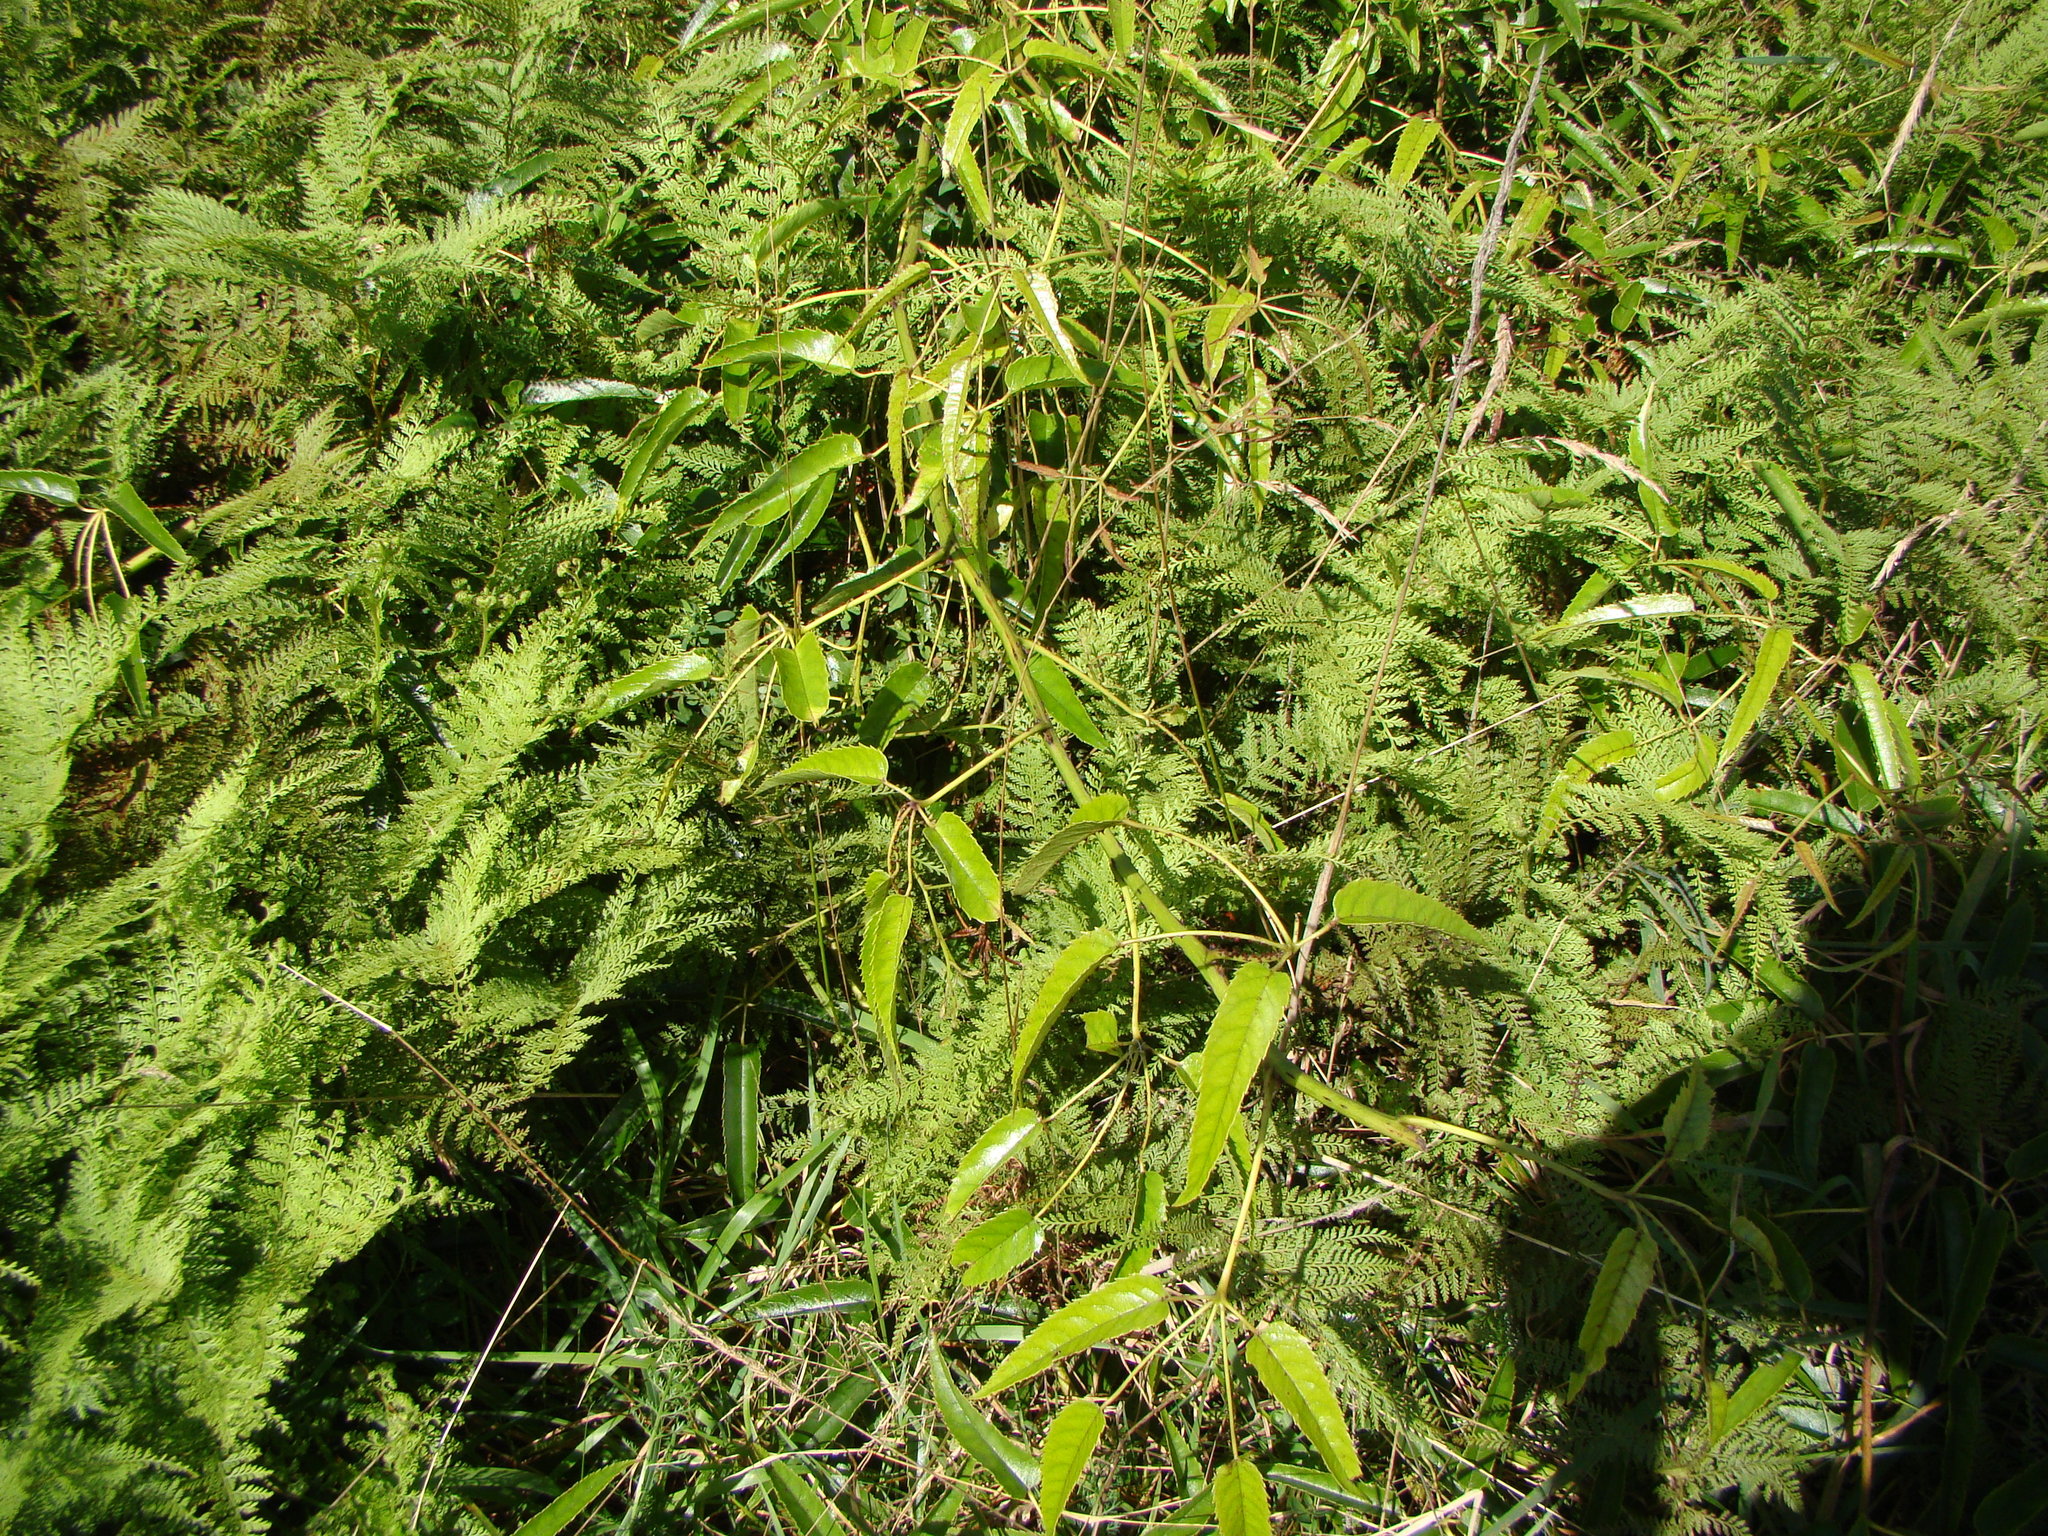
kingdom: Plantae
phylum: Tracheophyta
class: Magnoliopsida
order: Rosales
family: Rosaceae
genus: Rubus
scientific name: Rubus cissoides
